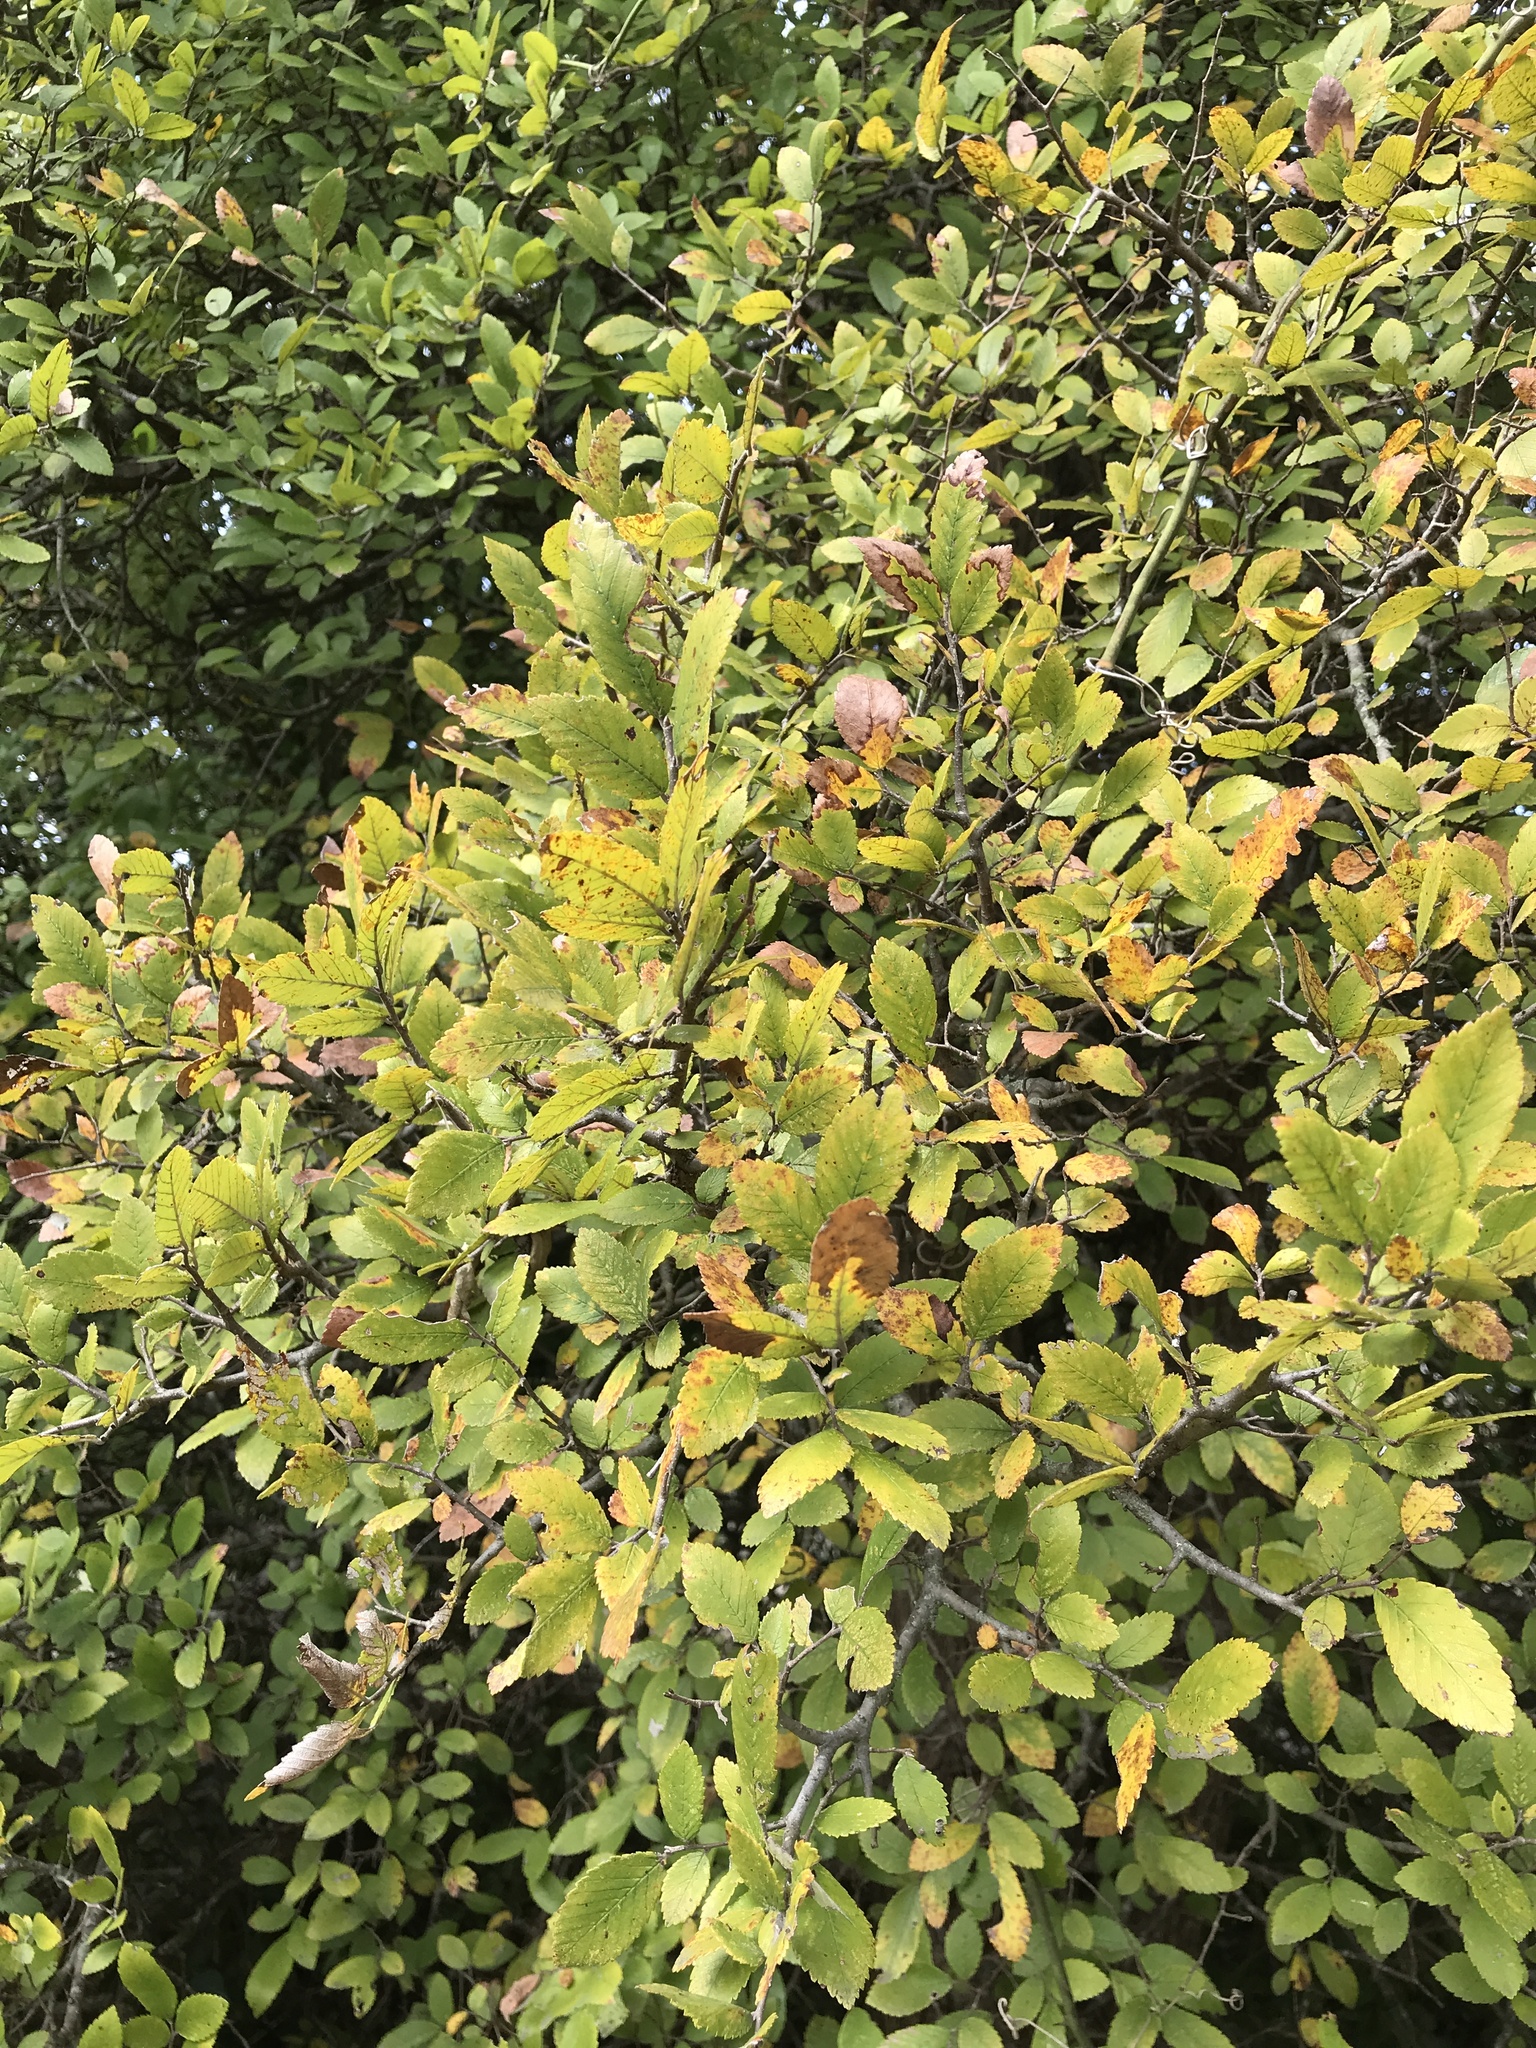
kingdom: Plantae
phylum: Tracheophyta
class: Magnoliopsida
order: Rosales
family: Ulmaceae
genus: Ulmus
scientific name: Ulmus crassifolia
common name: Basket elm
